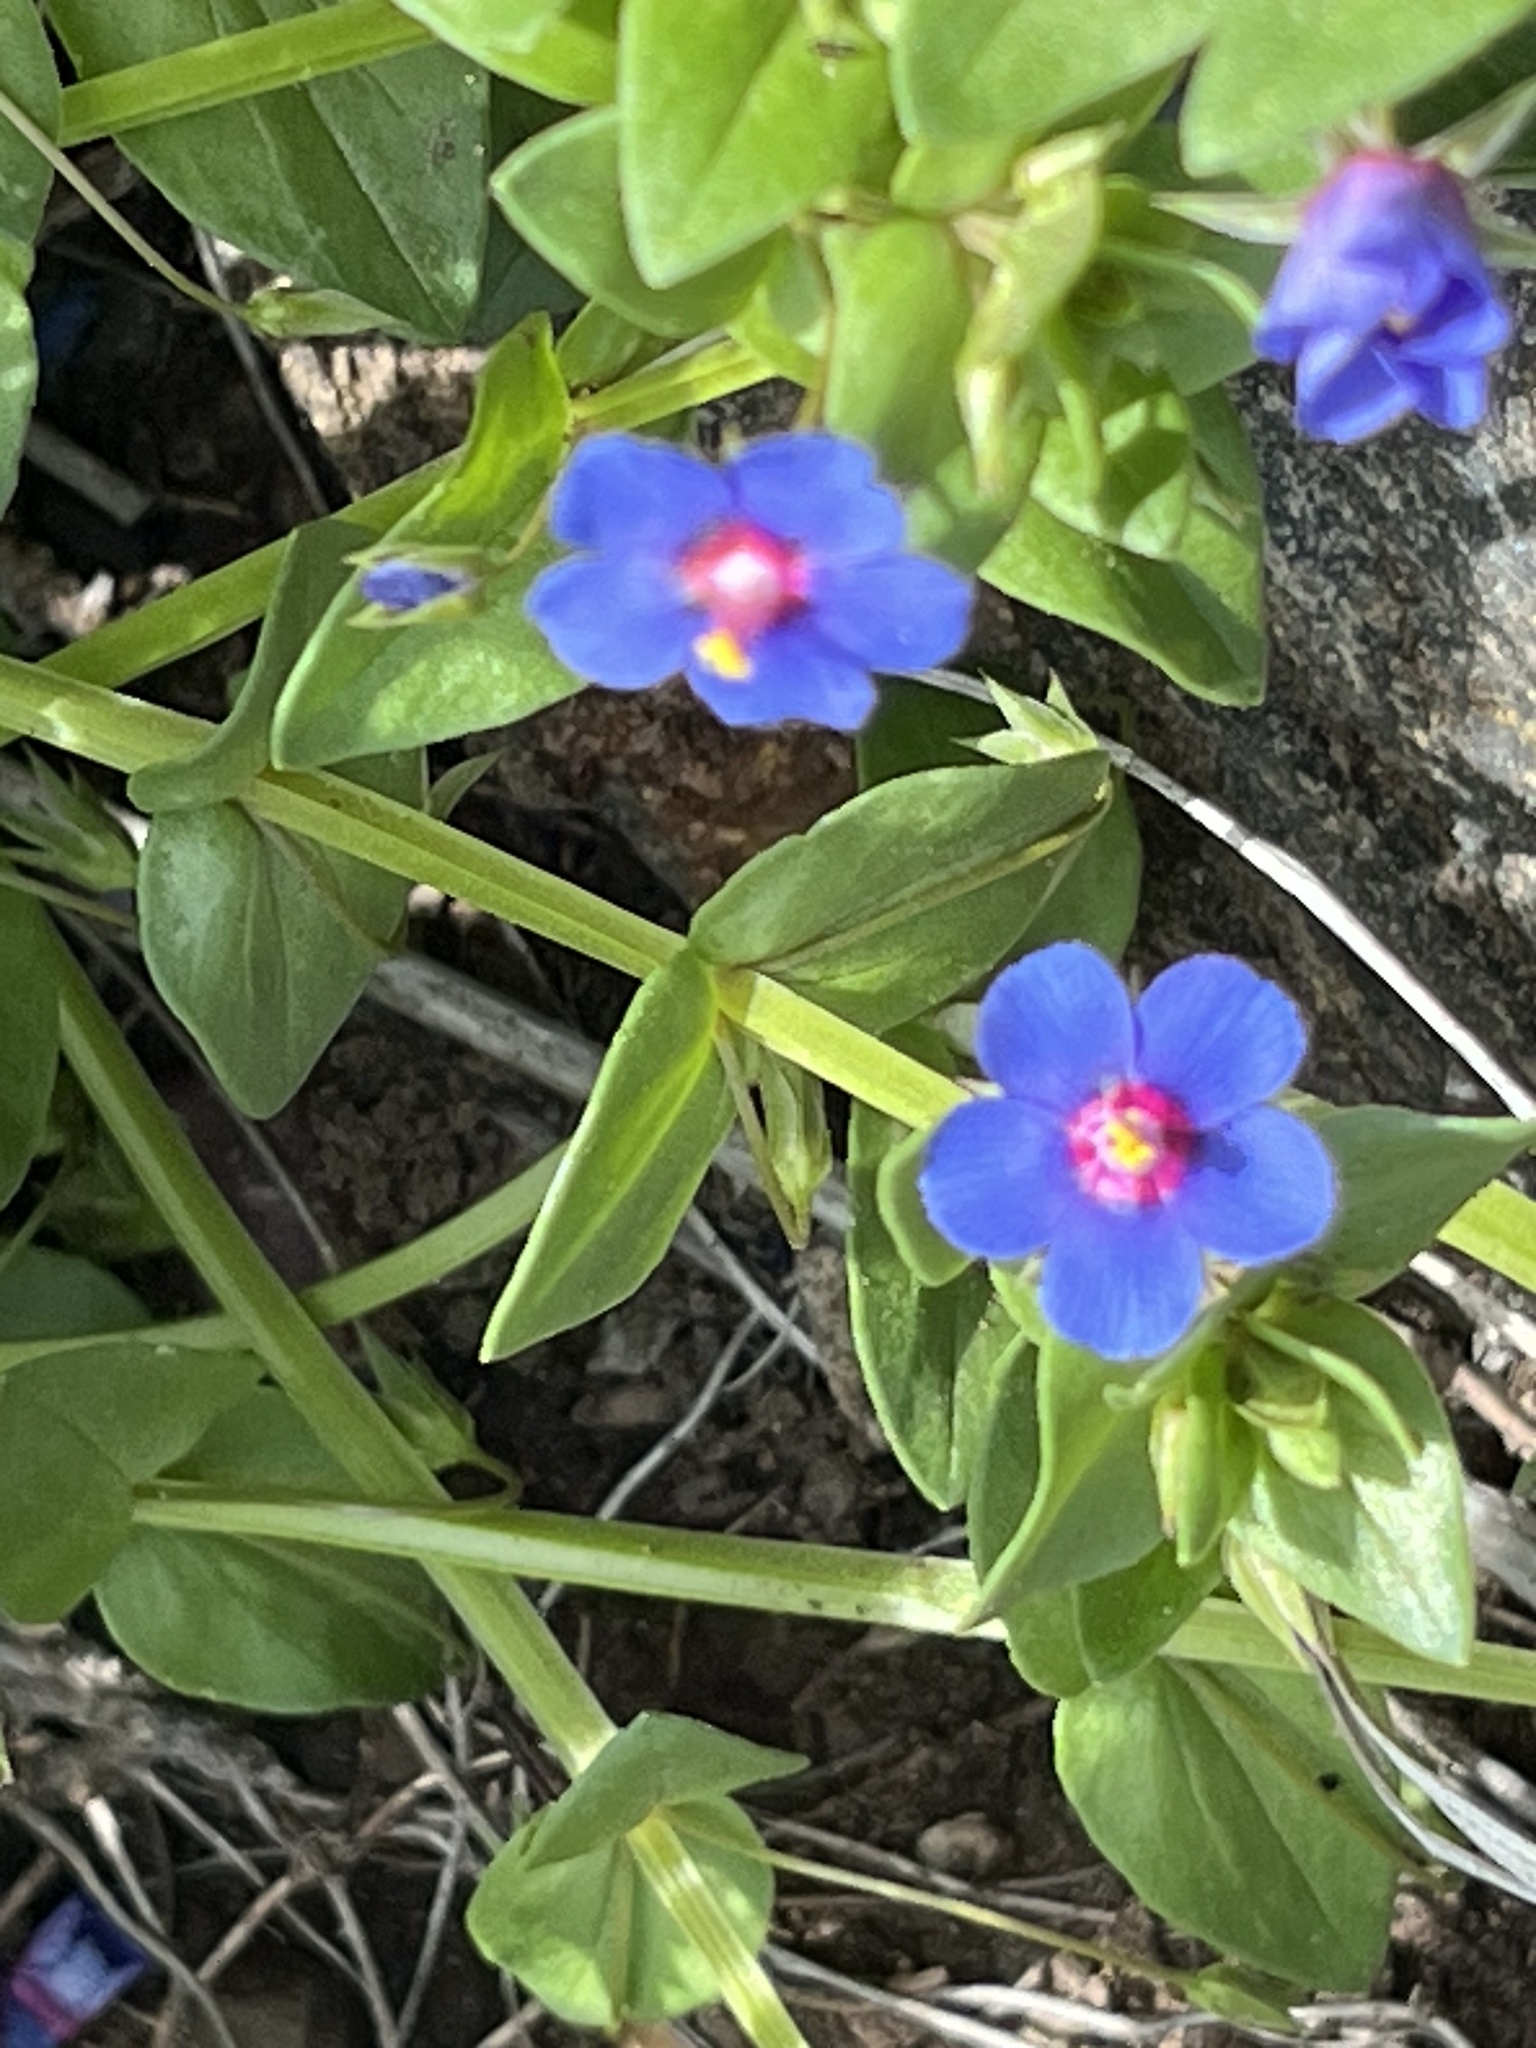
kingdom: Plantae
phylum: Tracheophyta
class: Magnoliopsida
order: Ericales
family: Primulaceae
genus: Lysimachia
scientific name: Lysimachia loeflingii
